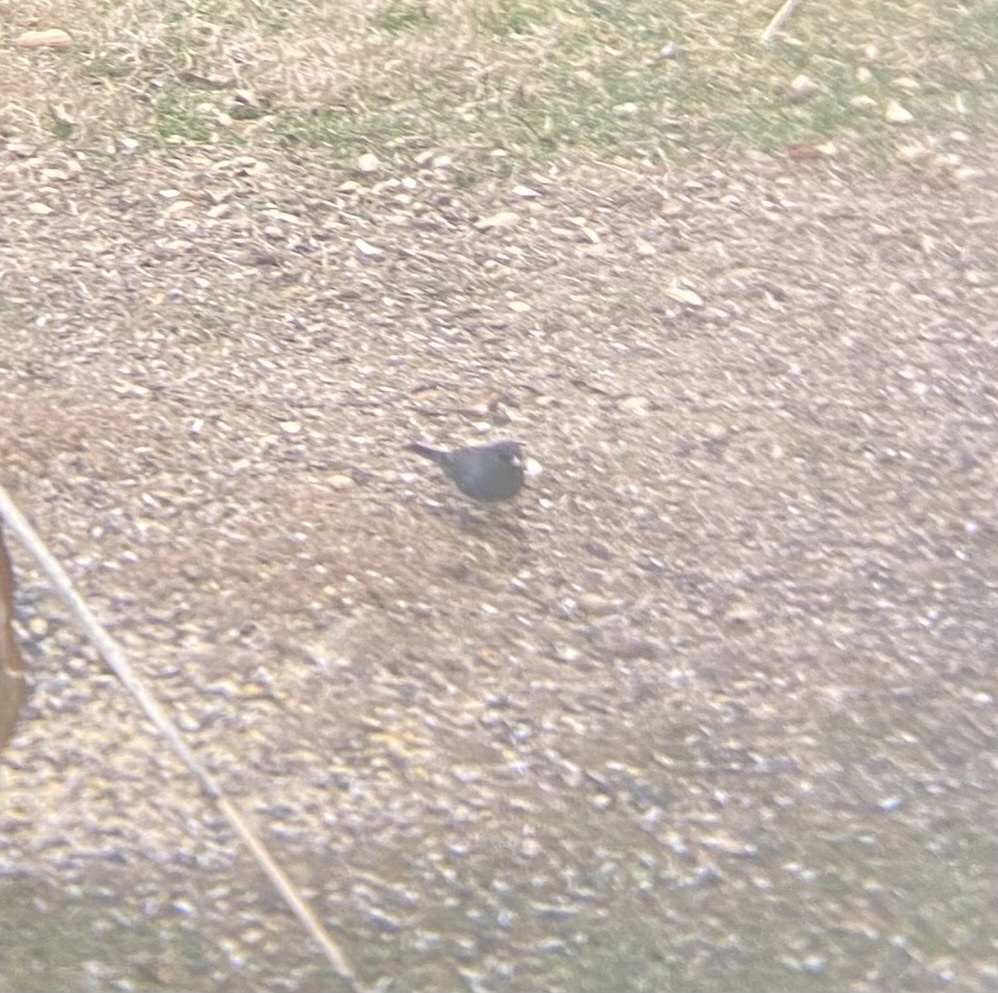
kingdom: Animalia
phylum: Chordata
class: Aves
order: Passeriformes
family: Passerellidae
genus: Junco
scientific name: Junco hyemalis
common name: Dark-eyed junco
